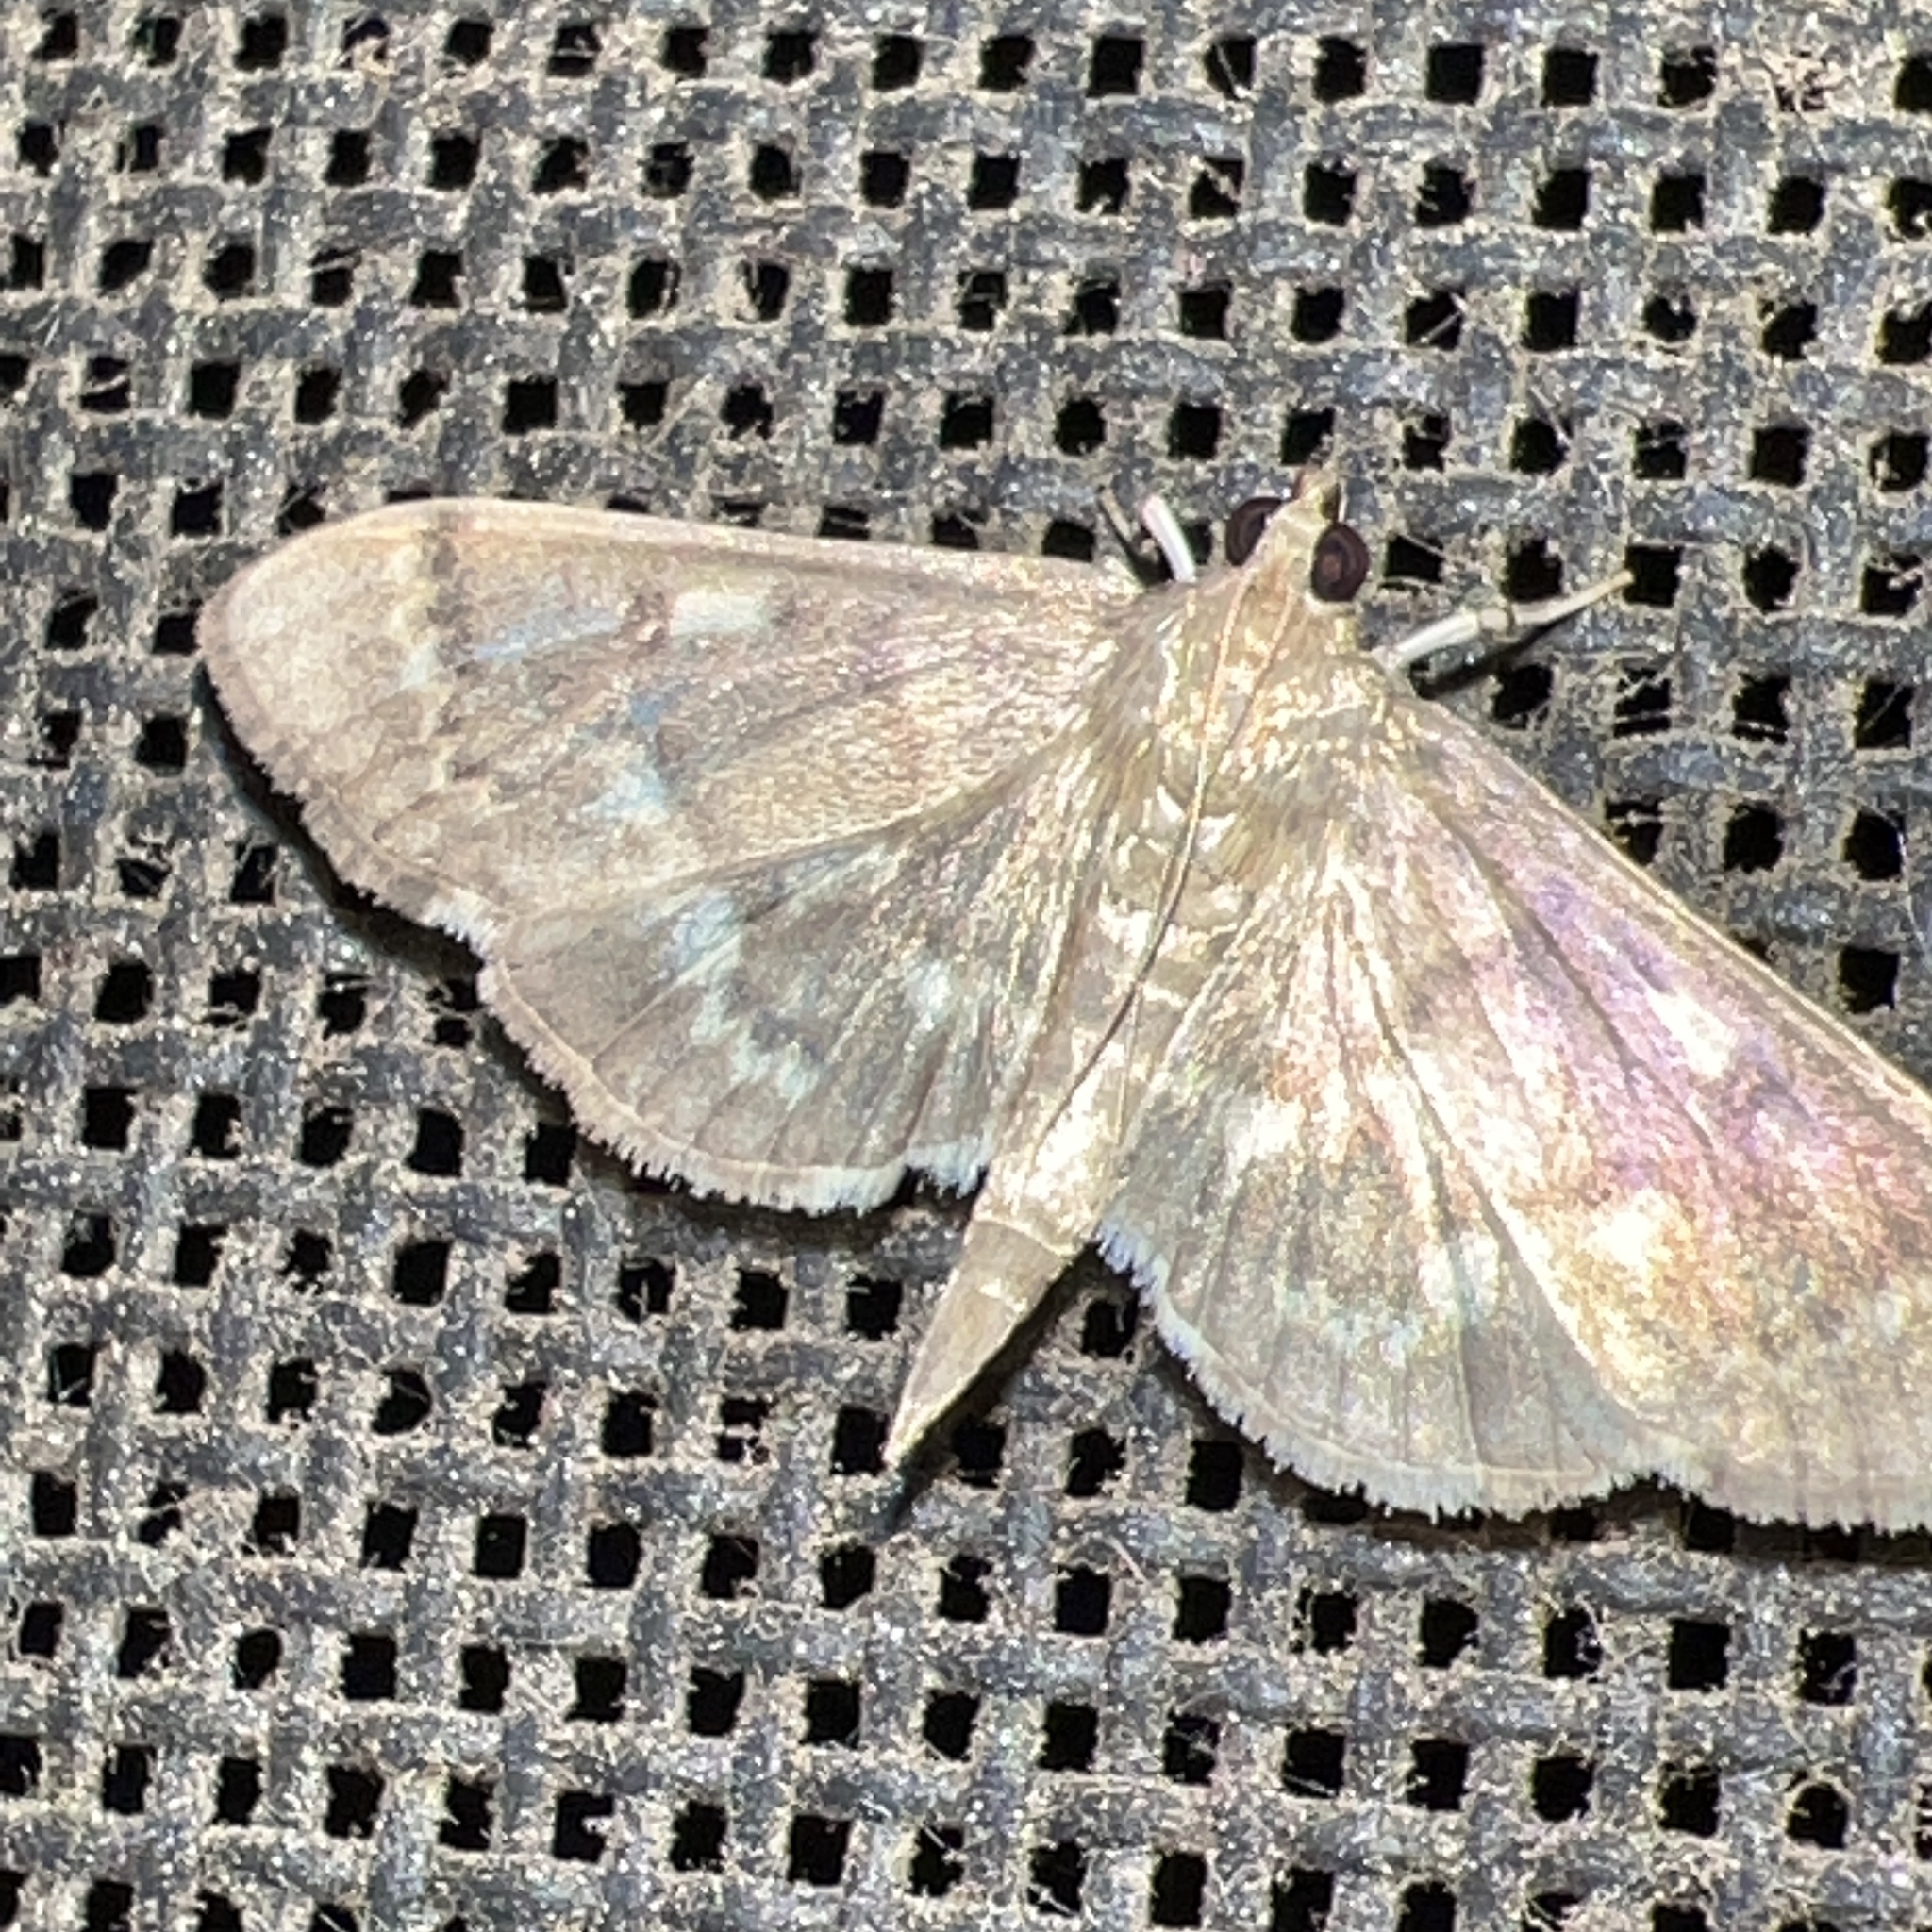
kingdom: Animalia
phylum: Arthropoda
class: Insecta
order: Lepidoptera
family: Crambidae
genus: Herpetogramma
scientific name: Herpetogramma aeglealis
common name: Serpentine webworm moth
